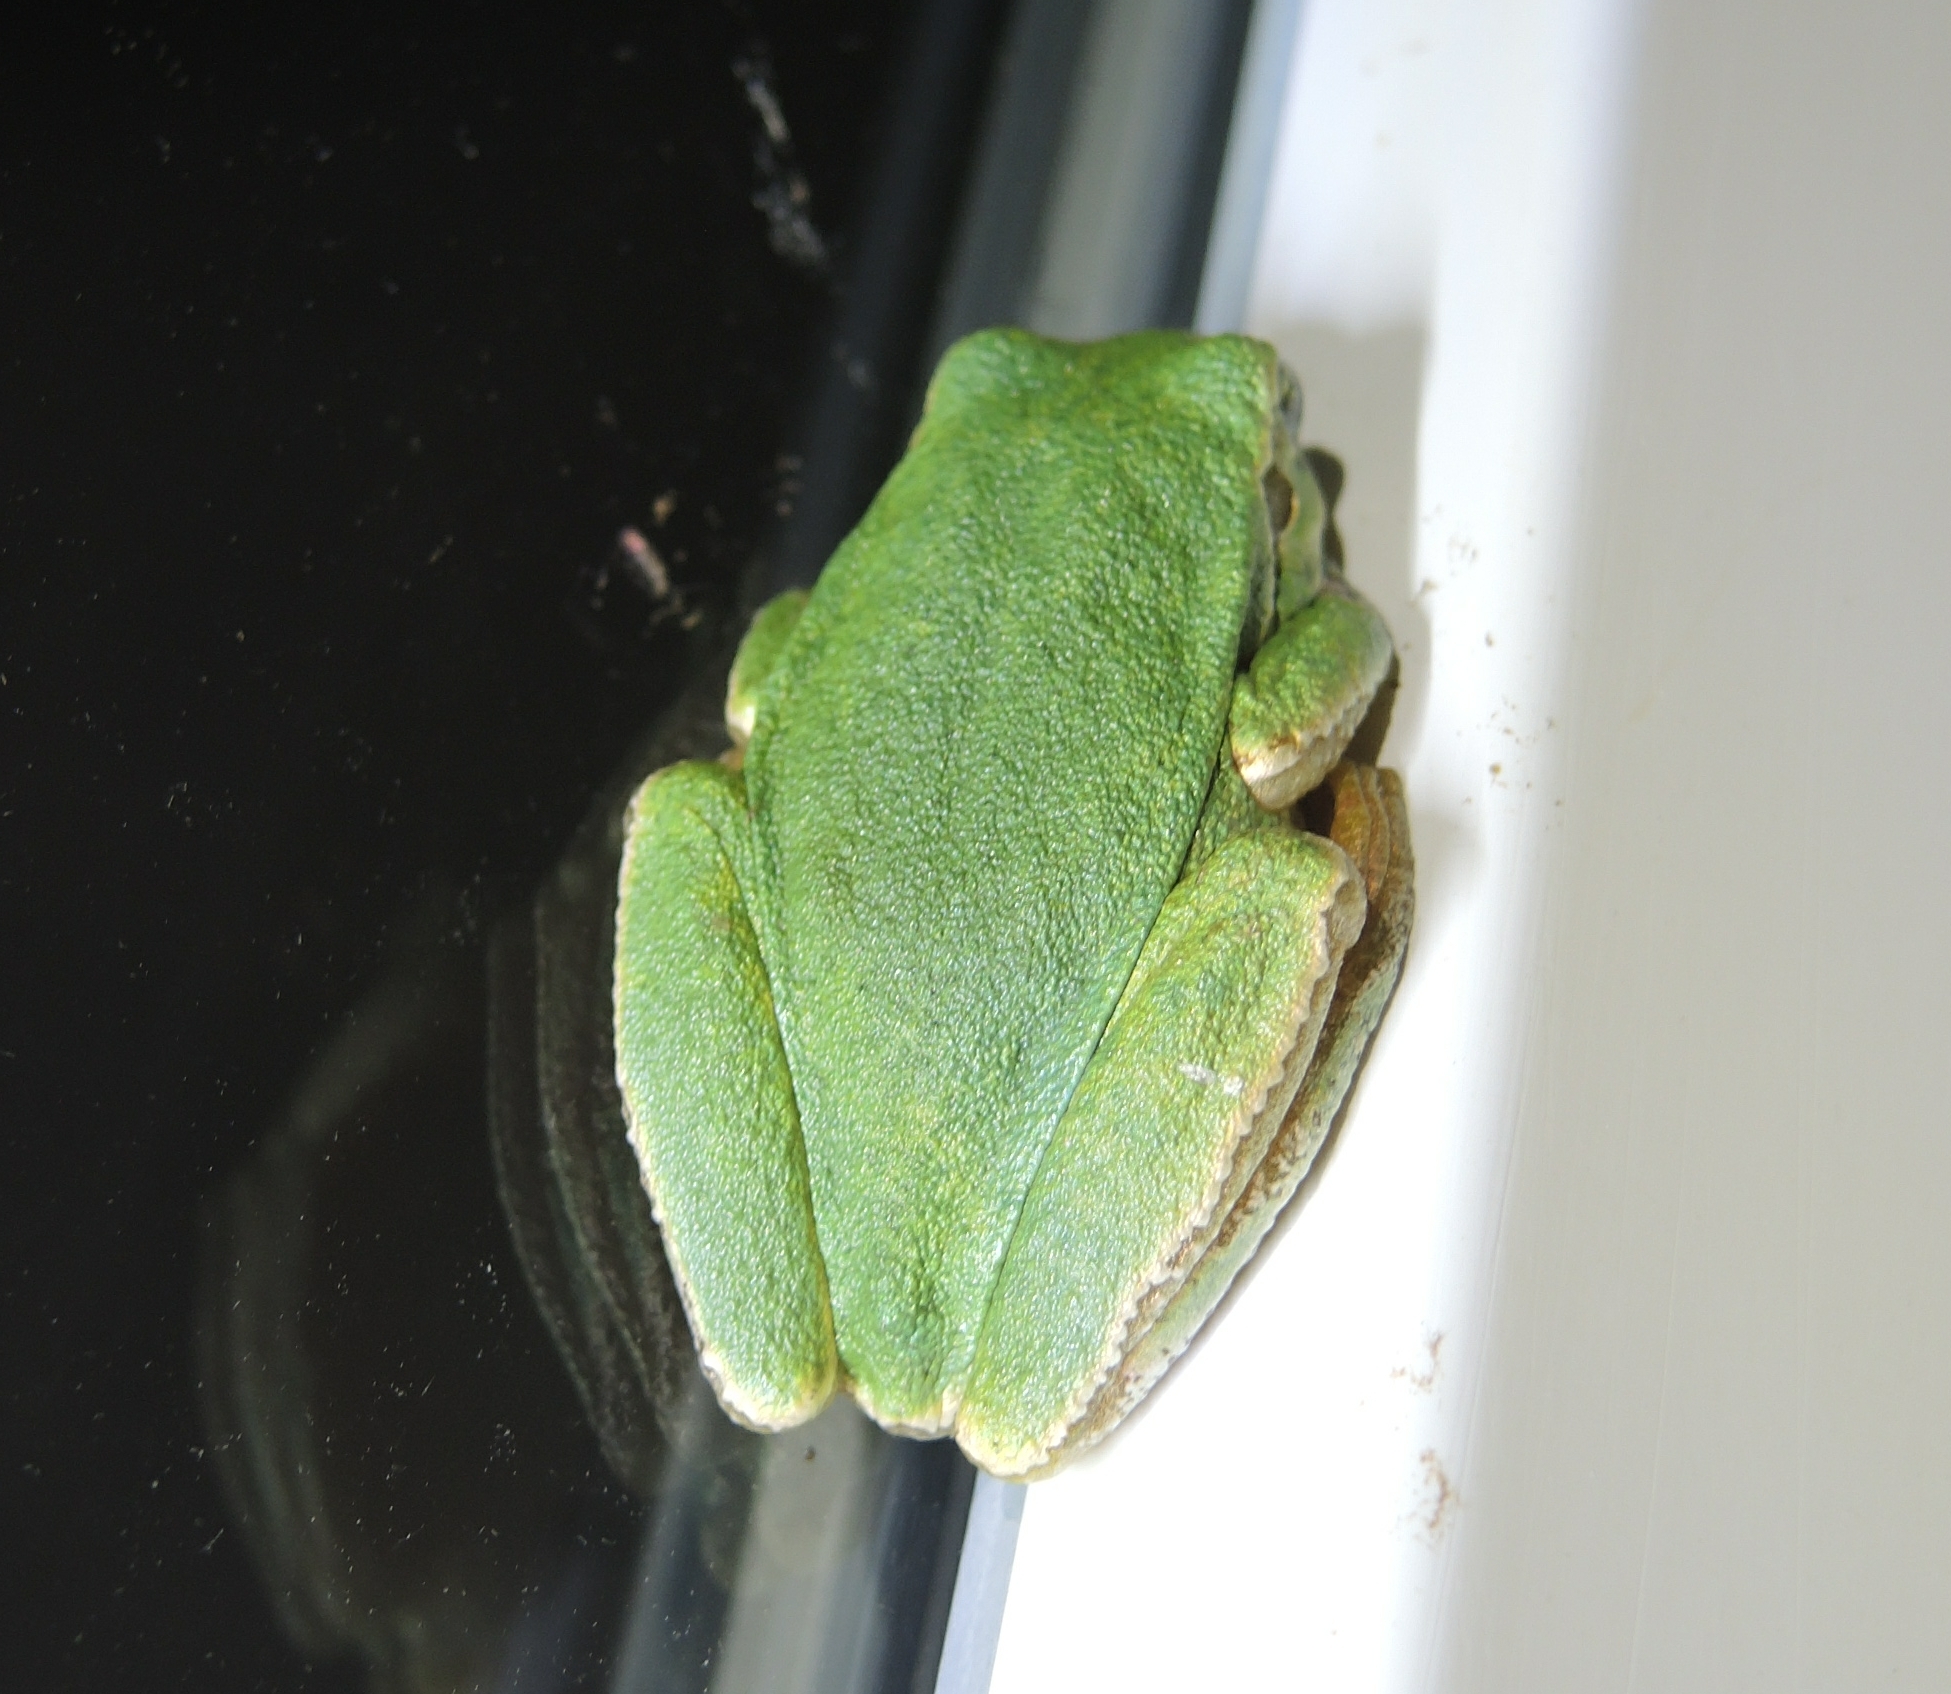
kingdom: Animalia
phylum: Chordata
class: Amphibia
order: Anura
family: Hylidae
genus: Hyla
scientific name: Hyla orientalis
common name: Caucasian treefrog
